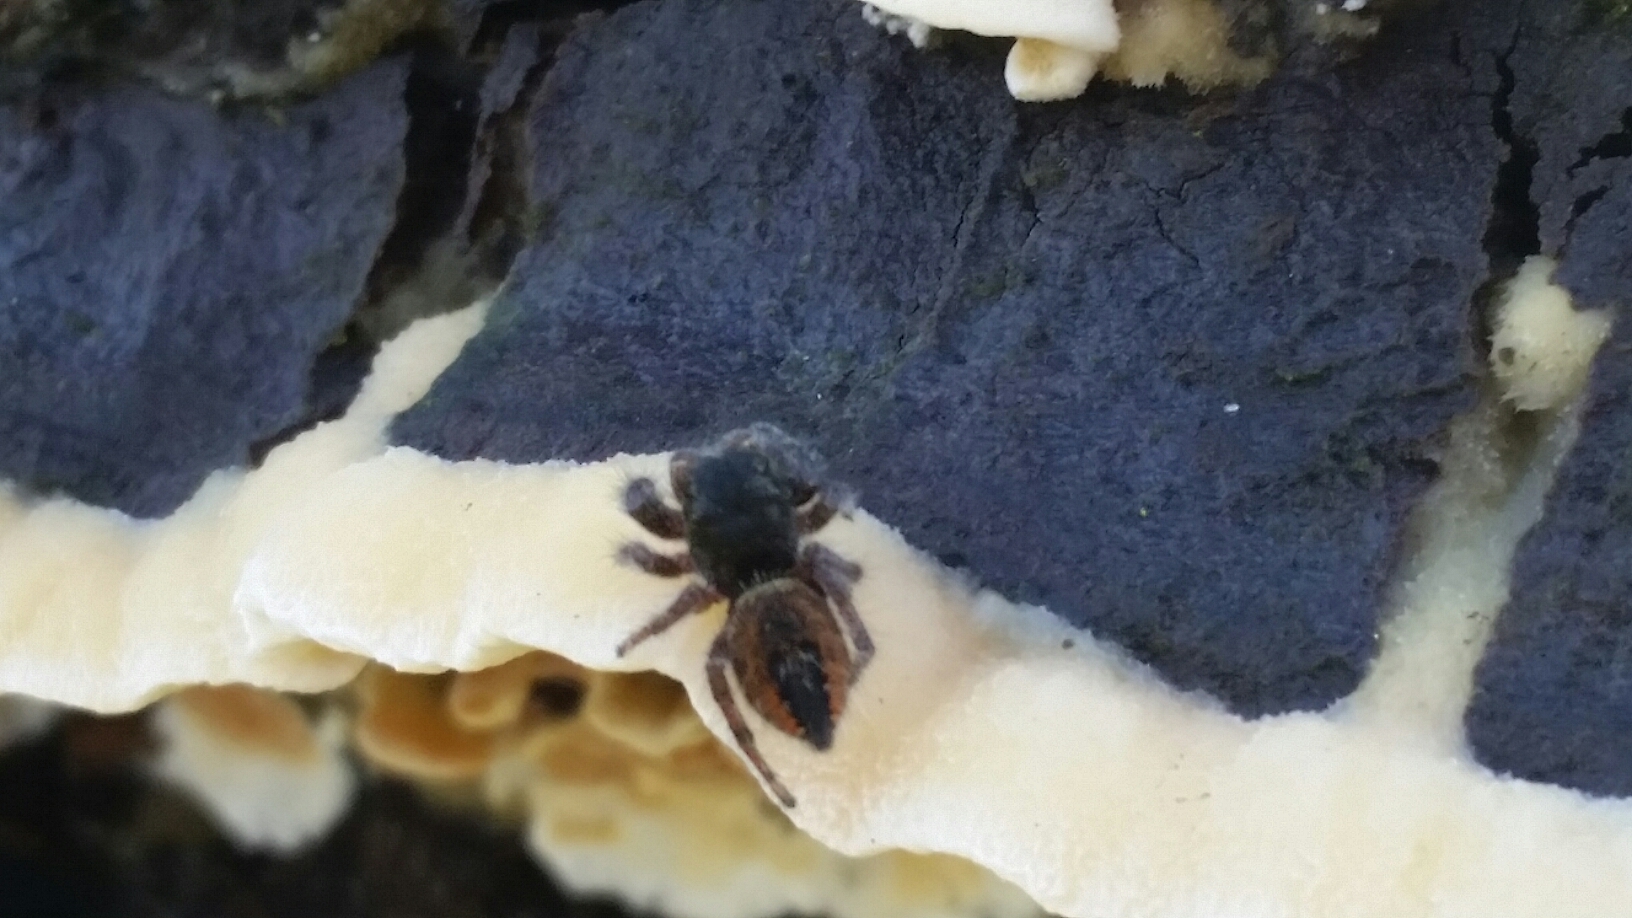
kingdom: Animalia
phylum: Arthropoda
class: Arachnida
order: Araneae
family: Salticidae
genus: Phidippus
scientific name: Phidippus johnsoni
